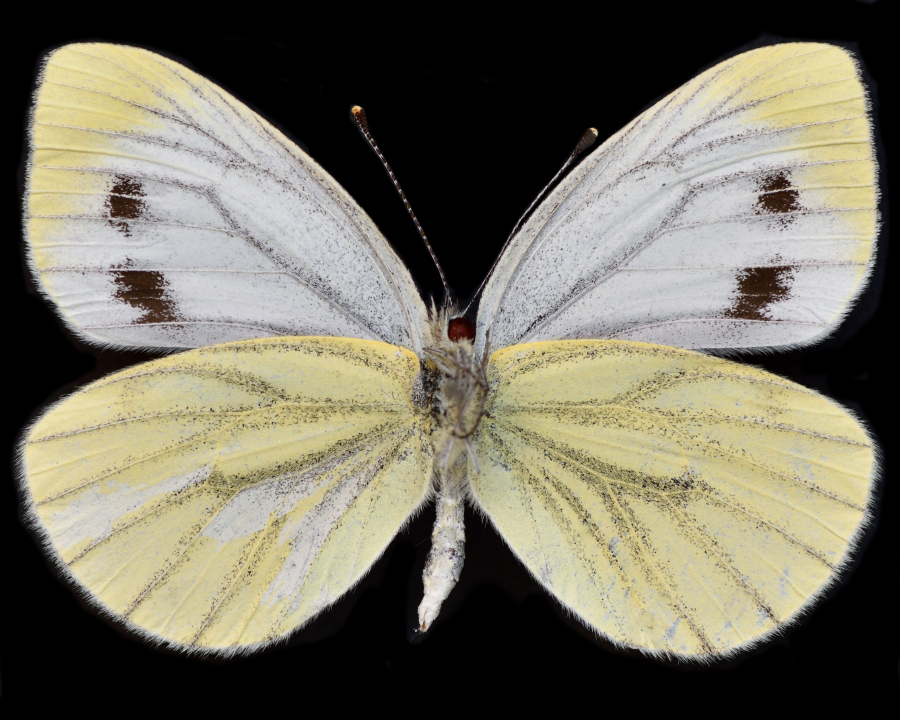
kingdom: Animalia
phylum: Arthropoda
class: Insecta
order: Lepidoptera
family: Pieridae
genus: Pieris
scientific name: Pieris napi
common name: Green-veined white
